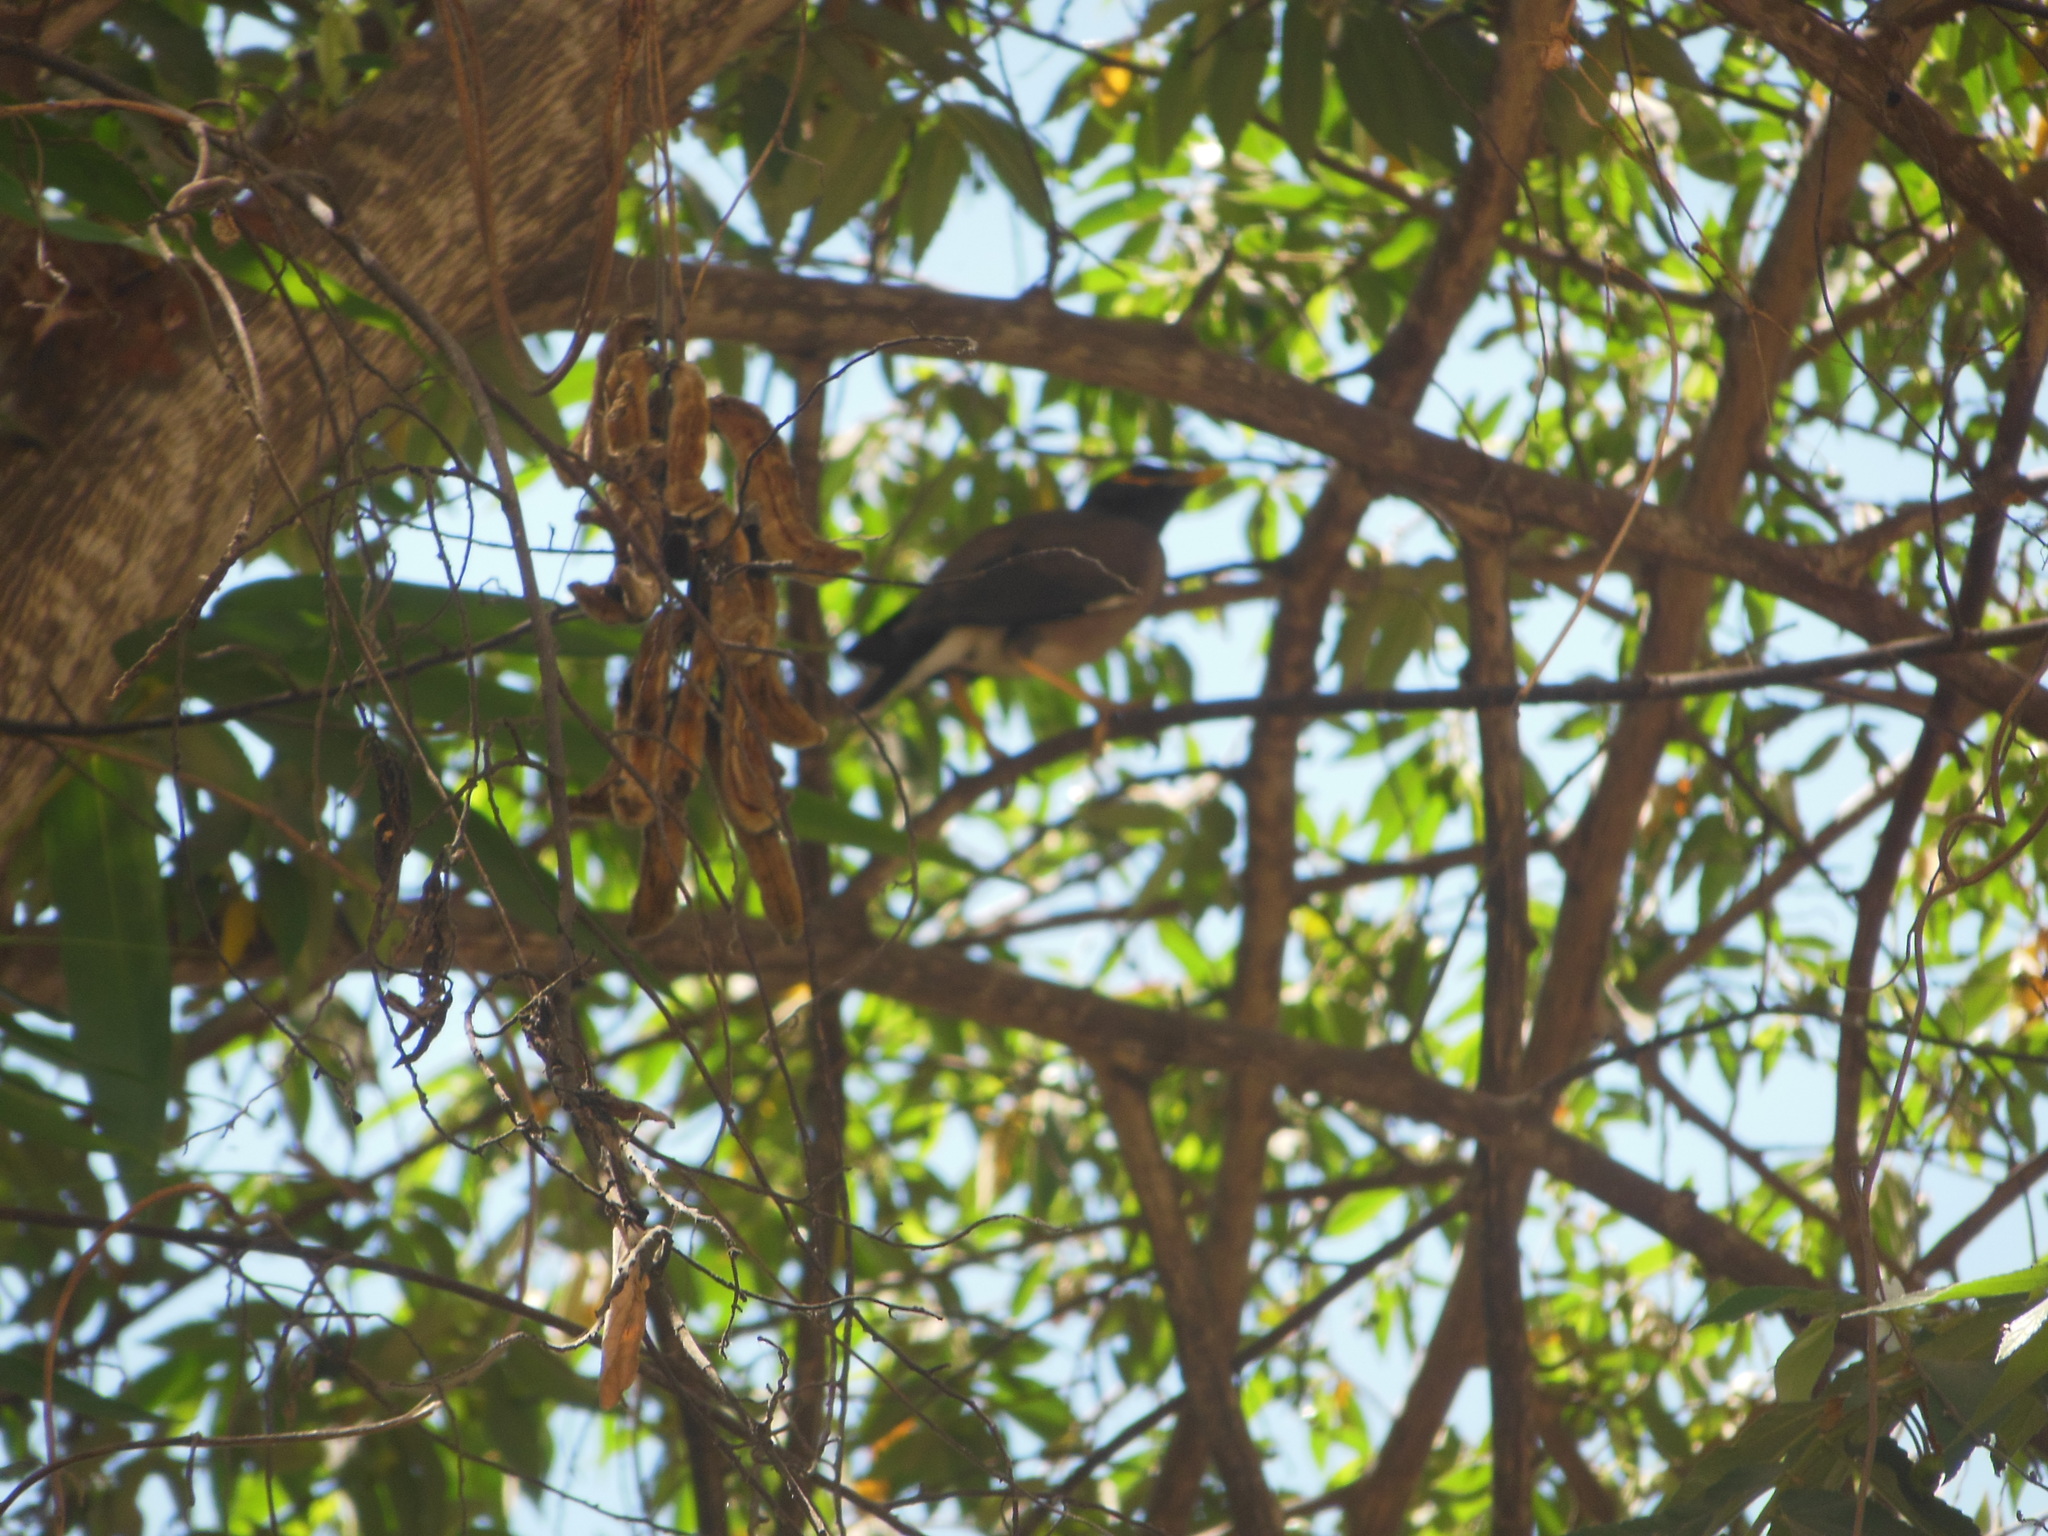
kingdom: Animalia
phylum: Chordata
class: Aves
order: Passeriformes
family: Sturnidae
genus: Acridotheres
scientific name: Acridotheres tristis
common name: Common myna
